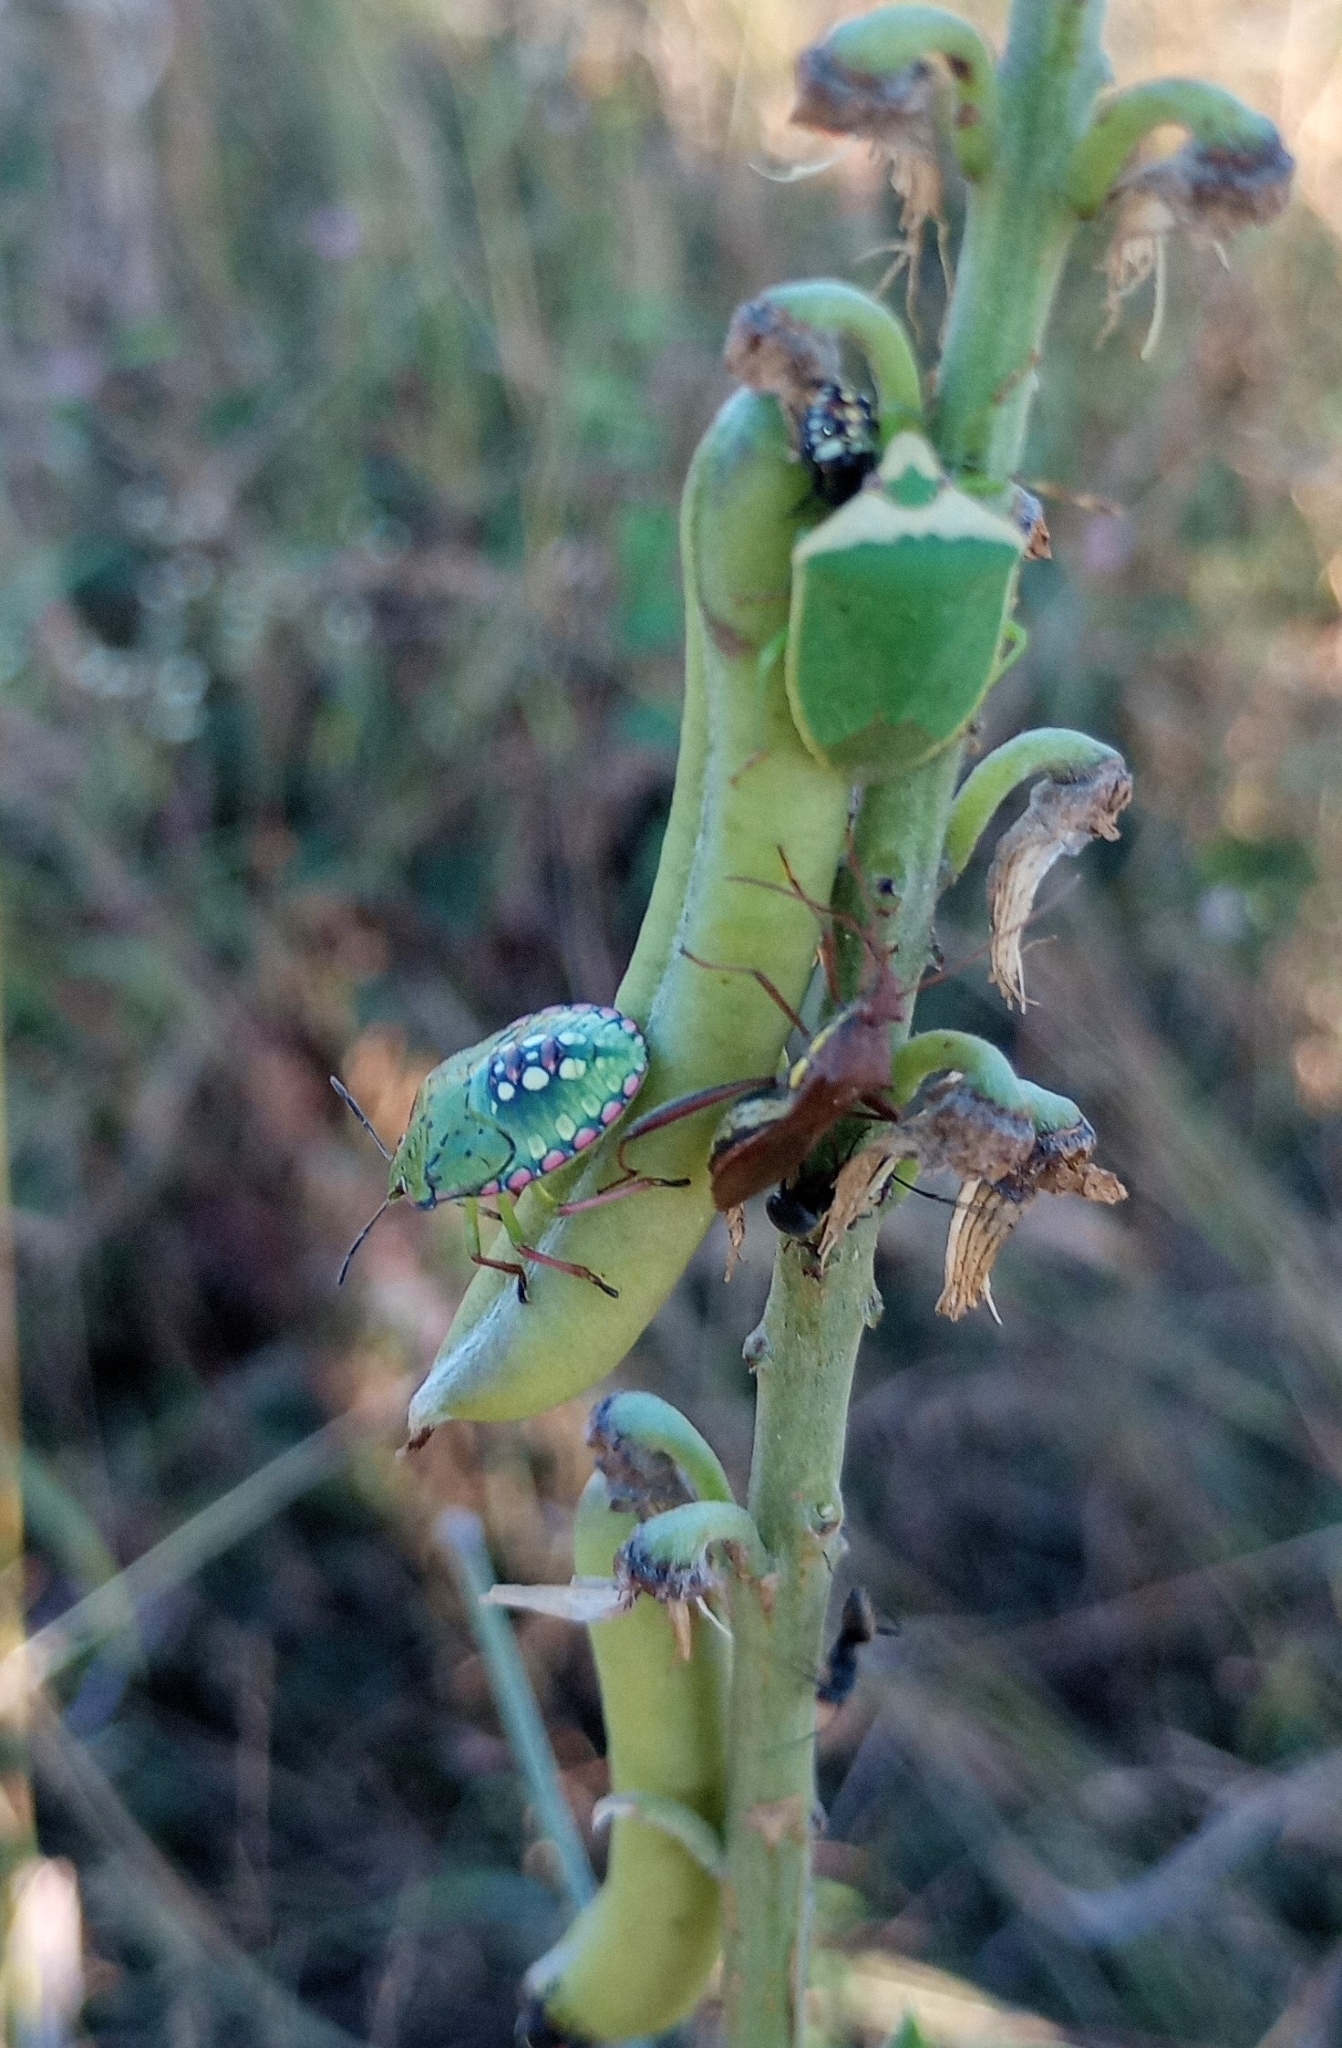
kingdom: Animalia
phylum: Arthropoda
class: Insecta
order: Hemiptera
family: Pentatomidae
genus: Nezara
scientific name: Nezara viridula
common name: Southern green stink bug
